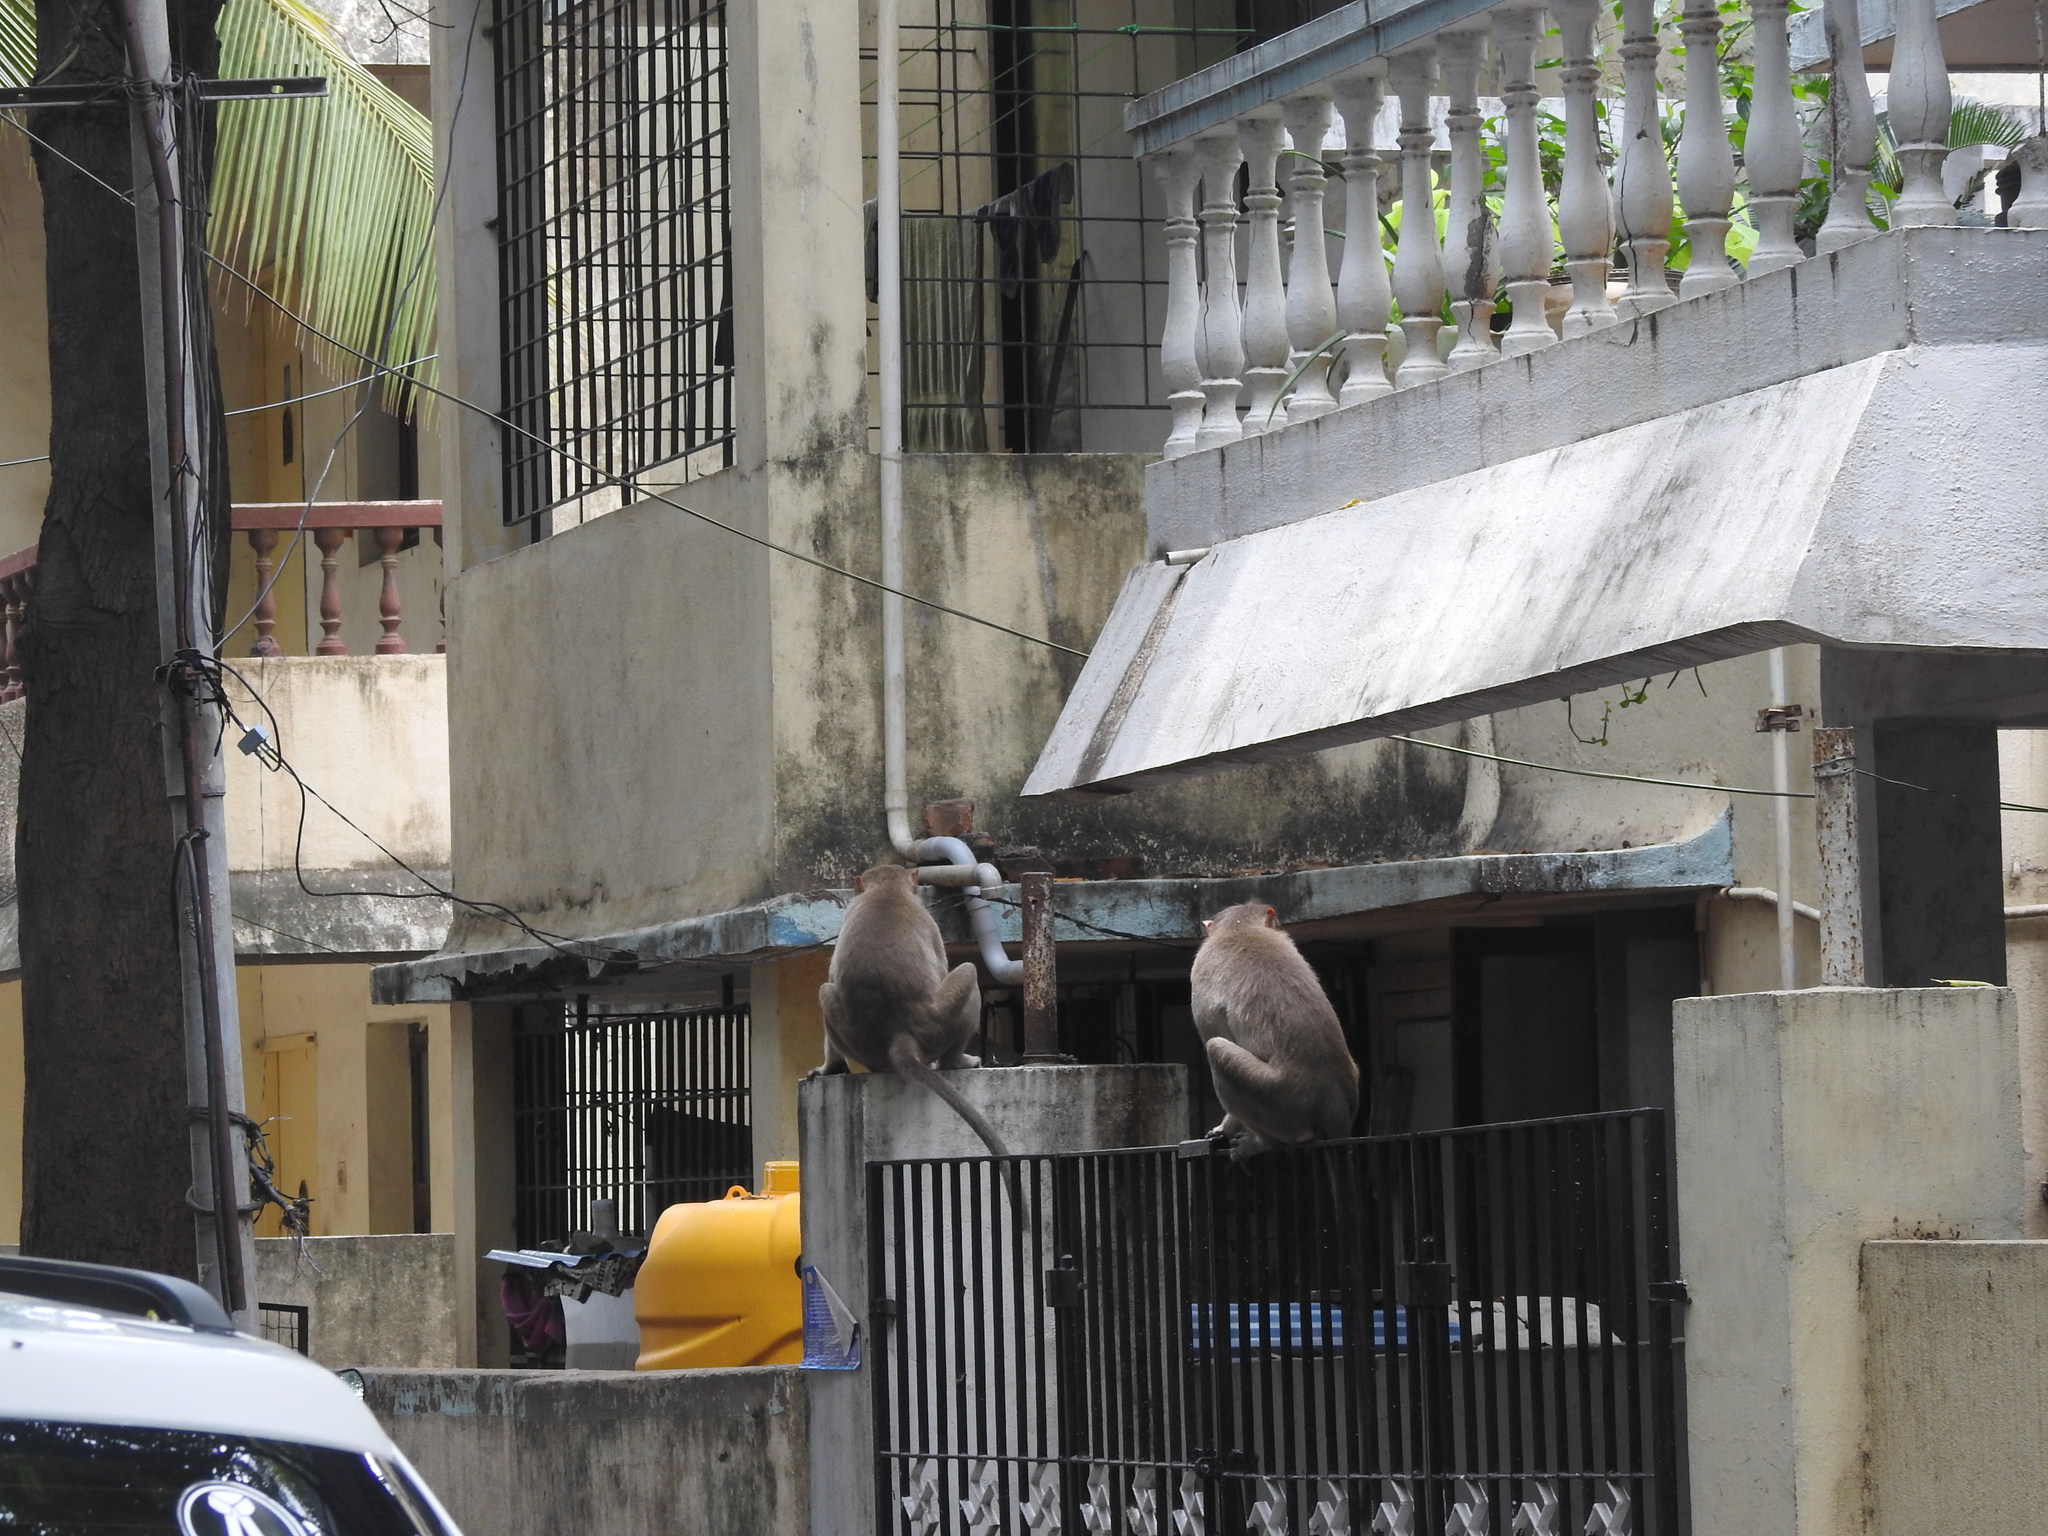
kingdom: Animalia
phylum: Chordata
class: Mammalia
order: Primates
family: Cercopithecidae
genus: Macaca
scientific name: Macaca radiata
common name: Bonnet macaque
